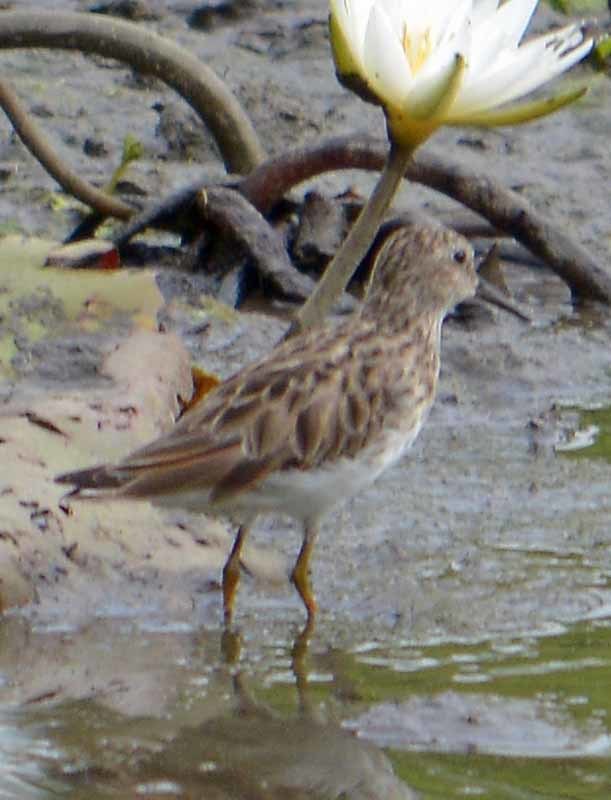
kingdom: Animalia
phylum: Chordata
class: Aves
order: Charadriiformes
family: Scolopacidae
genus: Calidris
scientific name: Calidris minutilla
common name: Least sandpiper
